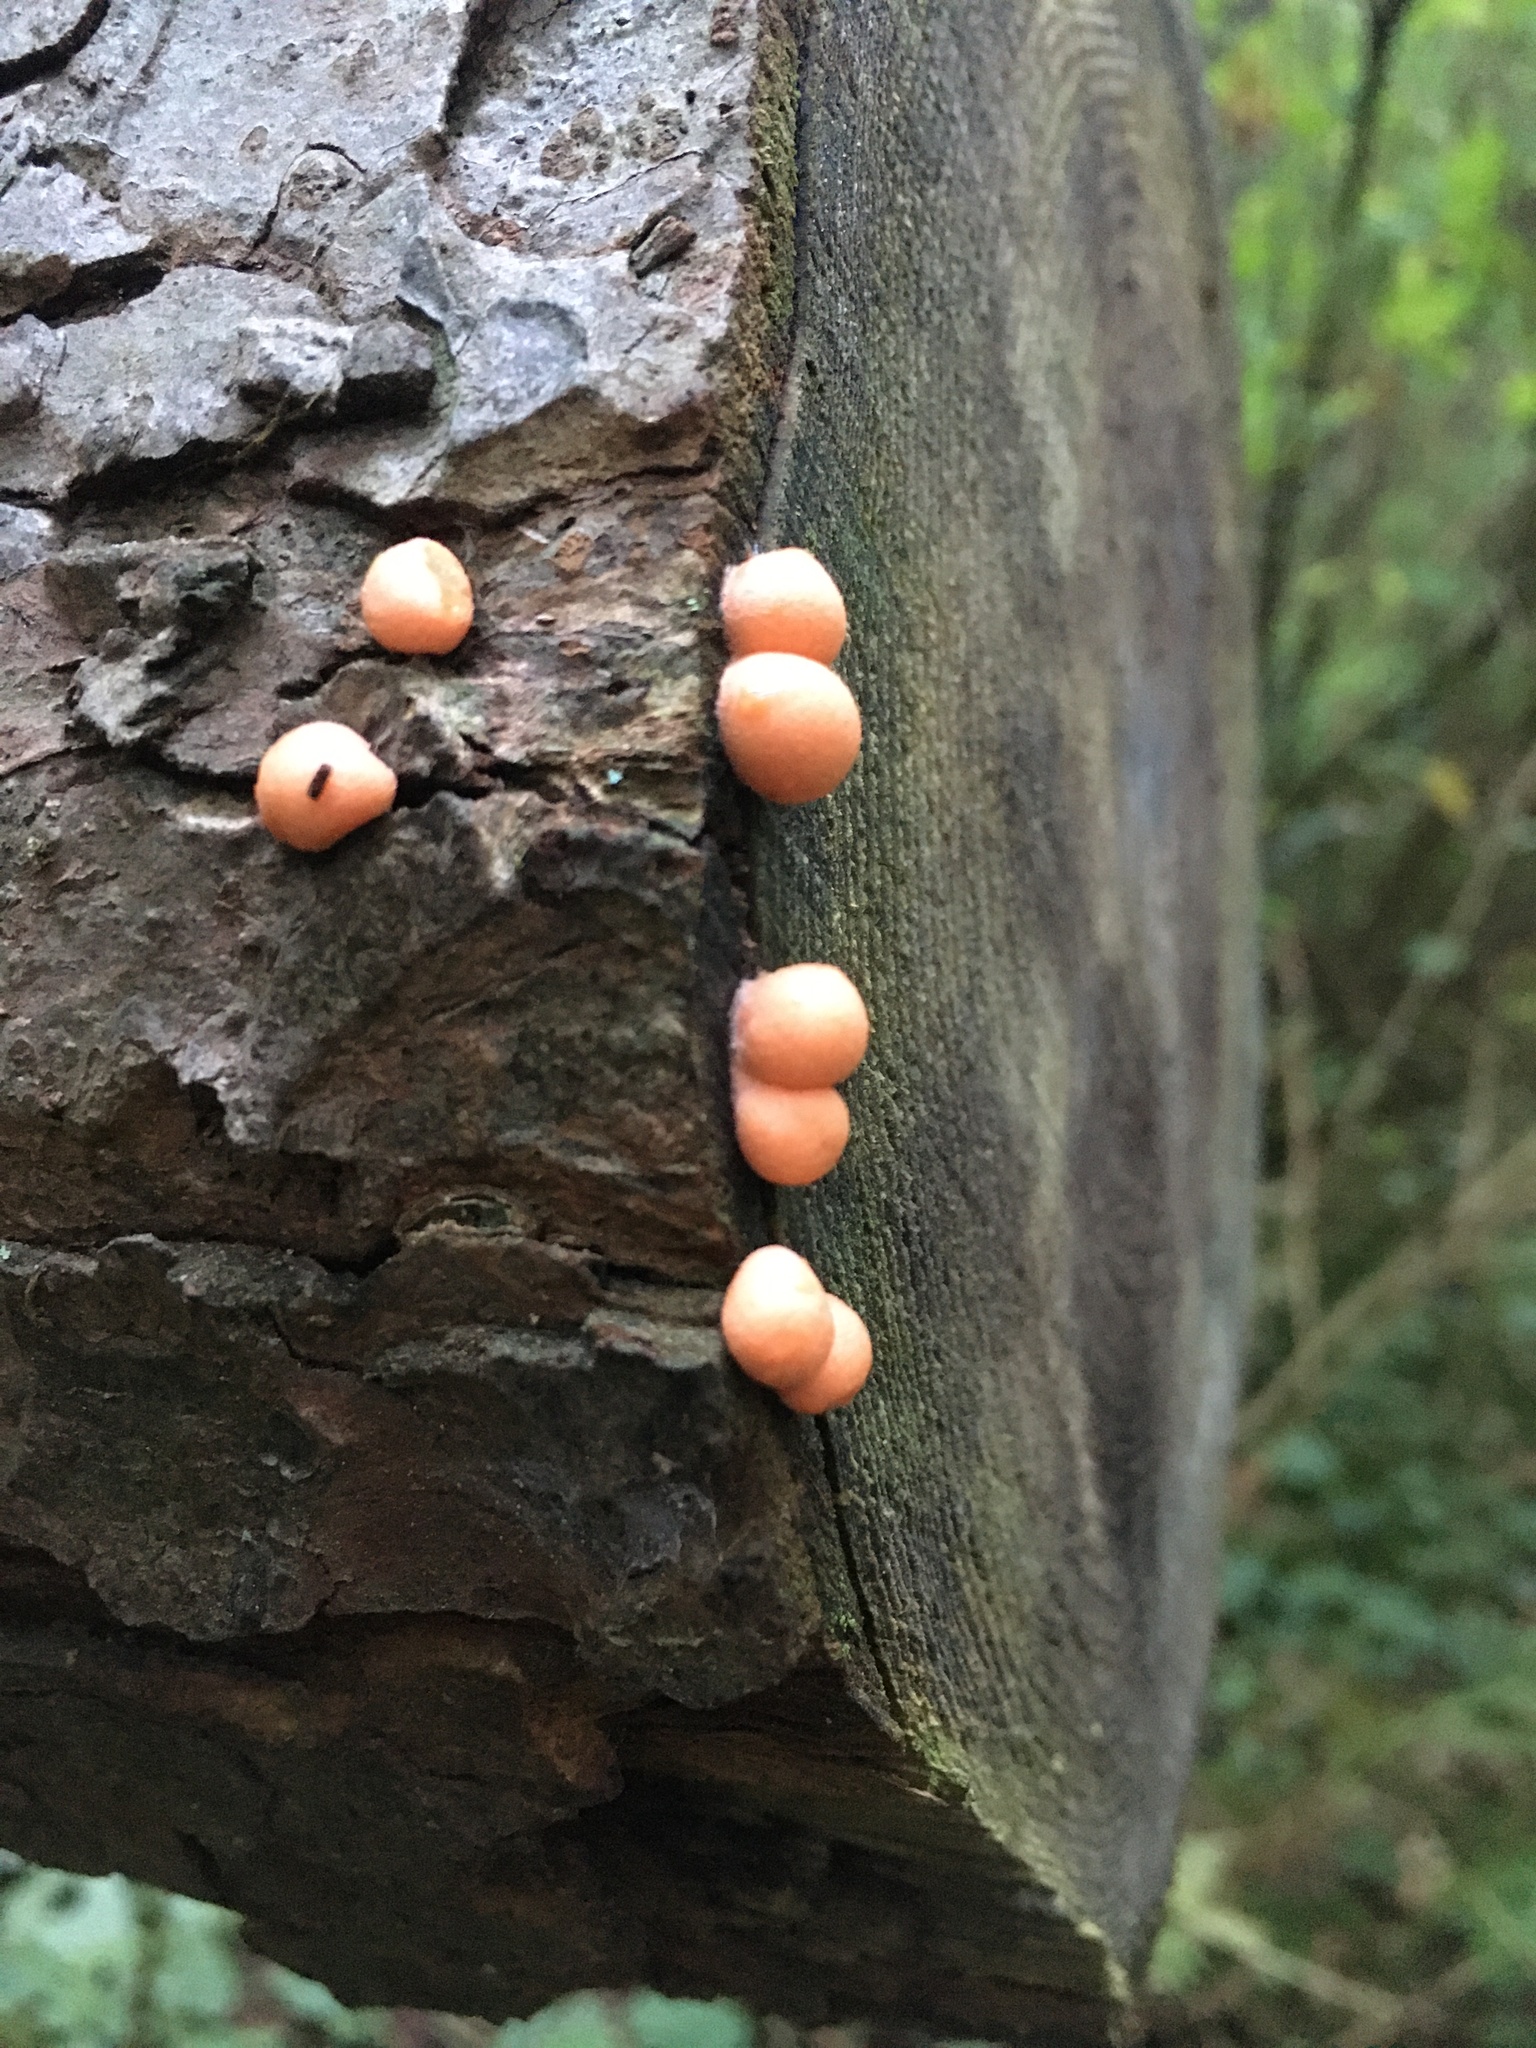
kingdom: Protozoa
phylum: Mycetozoa
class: Myxomycetes
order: Cribrariales
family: Tubiferaceae
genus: Lycogala
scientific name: Lycogala epidendrum
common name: Wolf's milk
